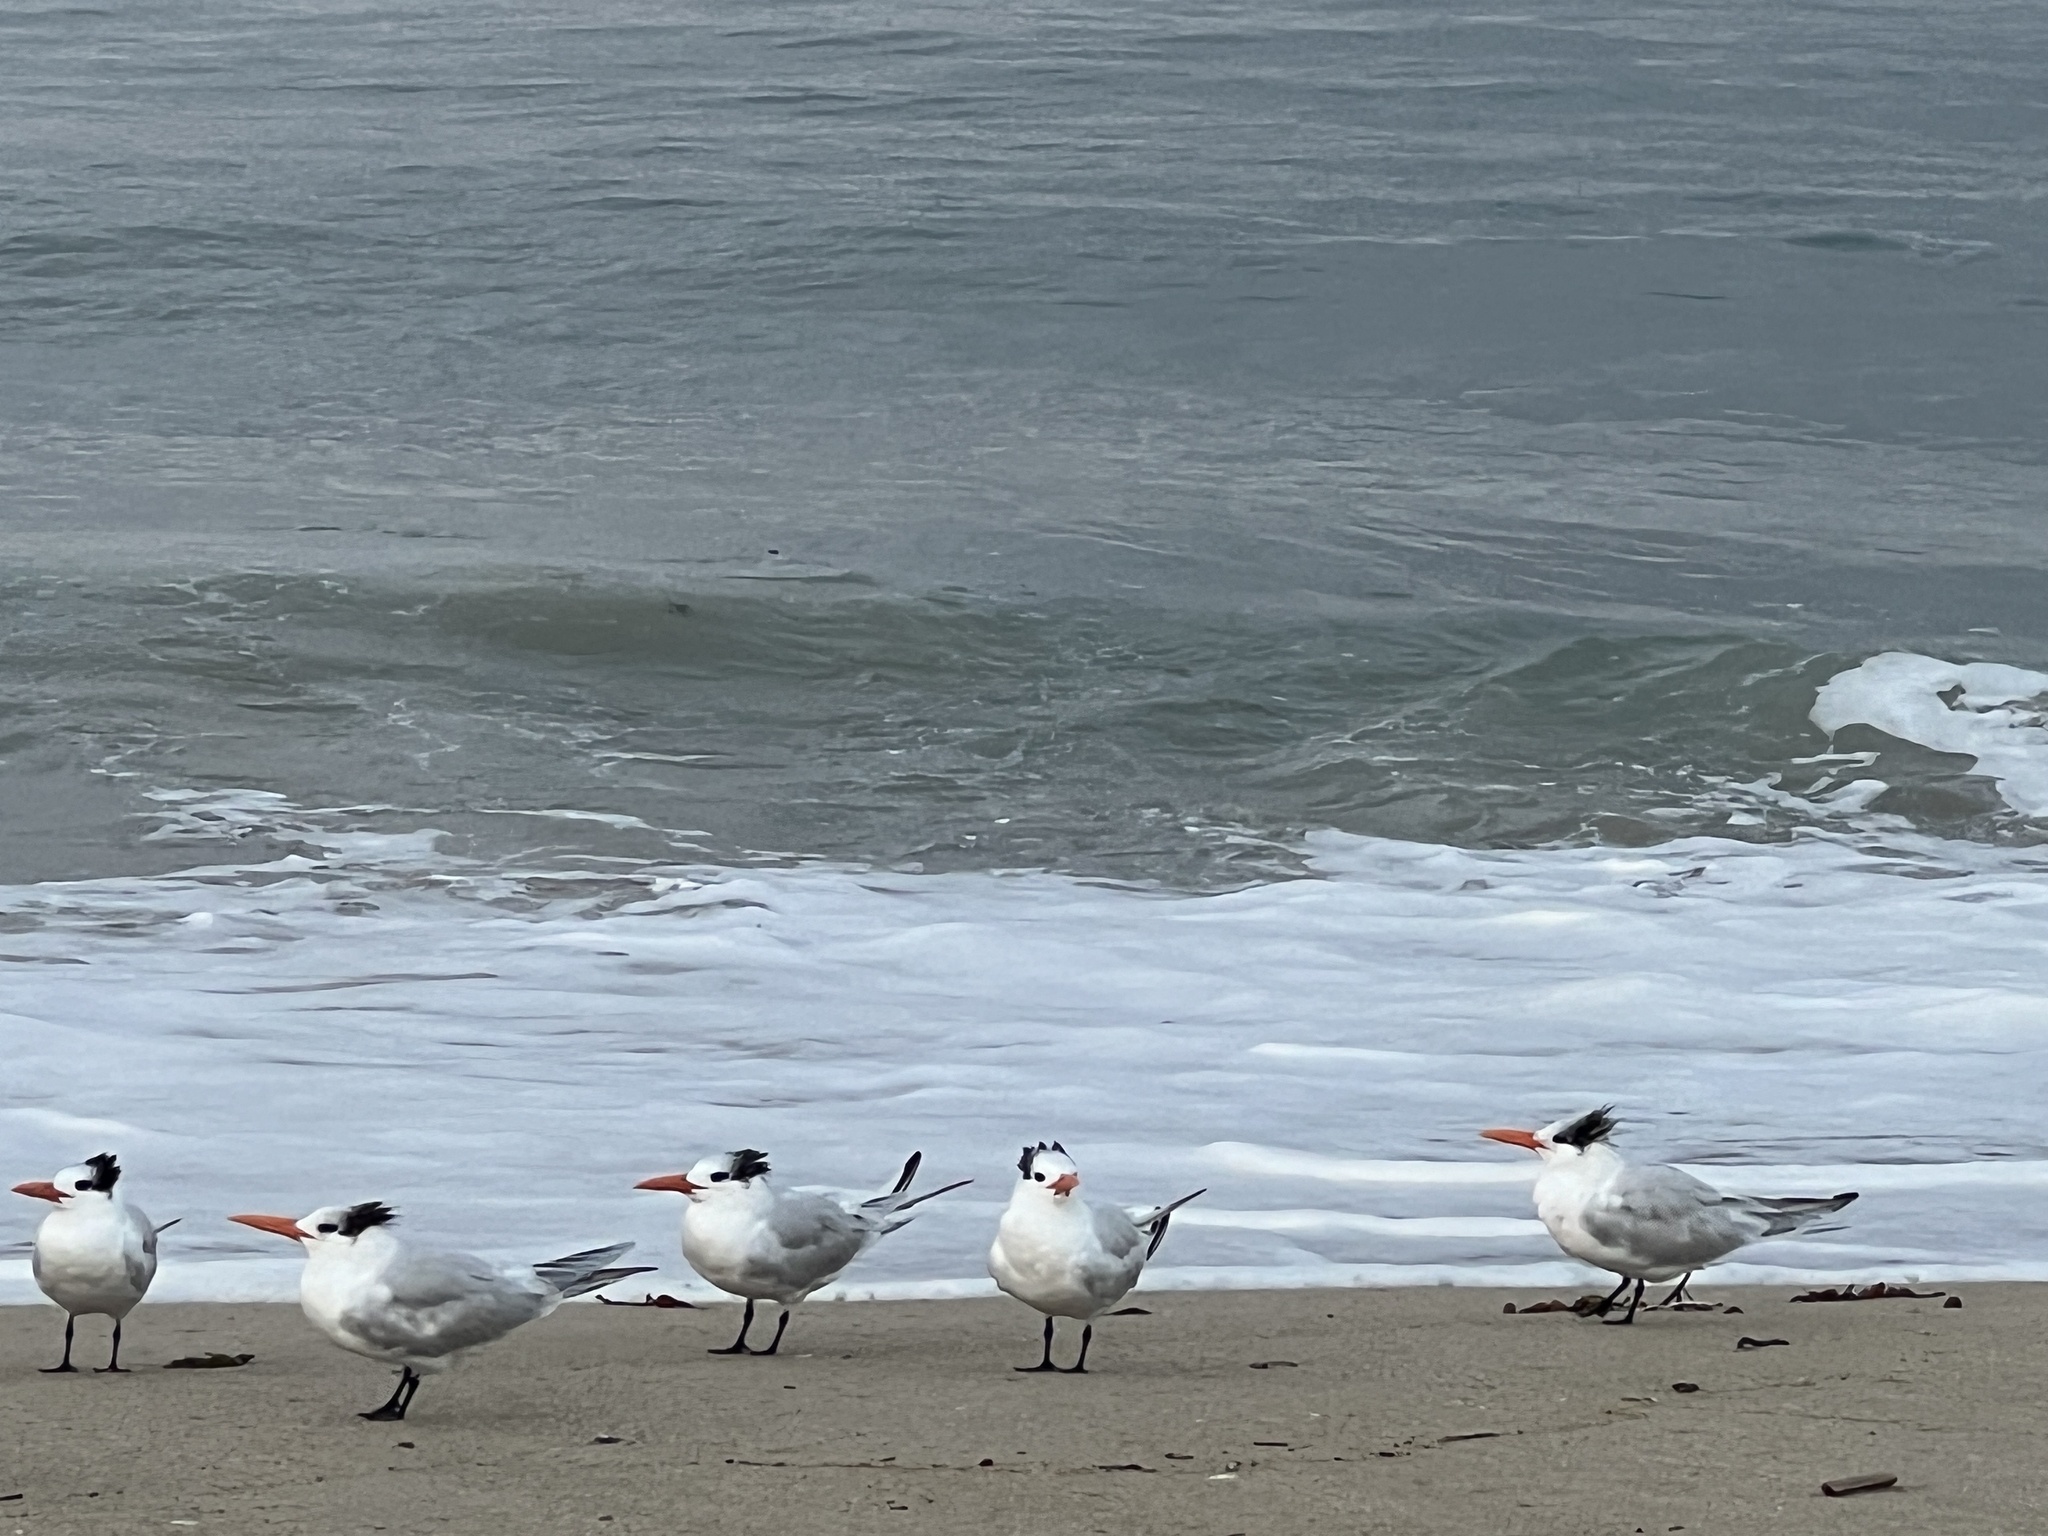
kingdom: Animalia
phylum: Chordata
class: Aves
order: Charadriiformes
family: Laridae
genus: Thalasseus
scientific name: Thalasseus maximus
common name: Royal tern
